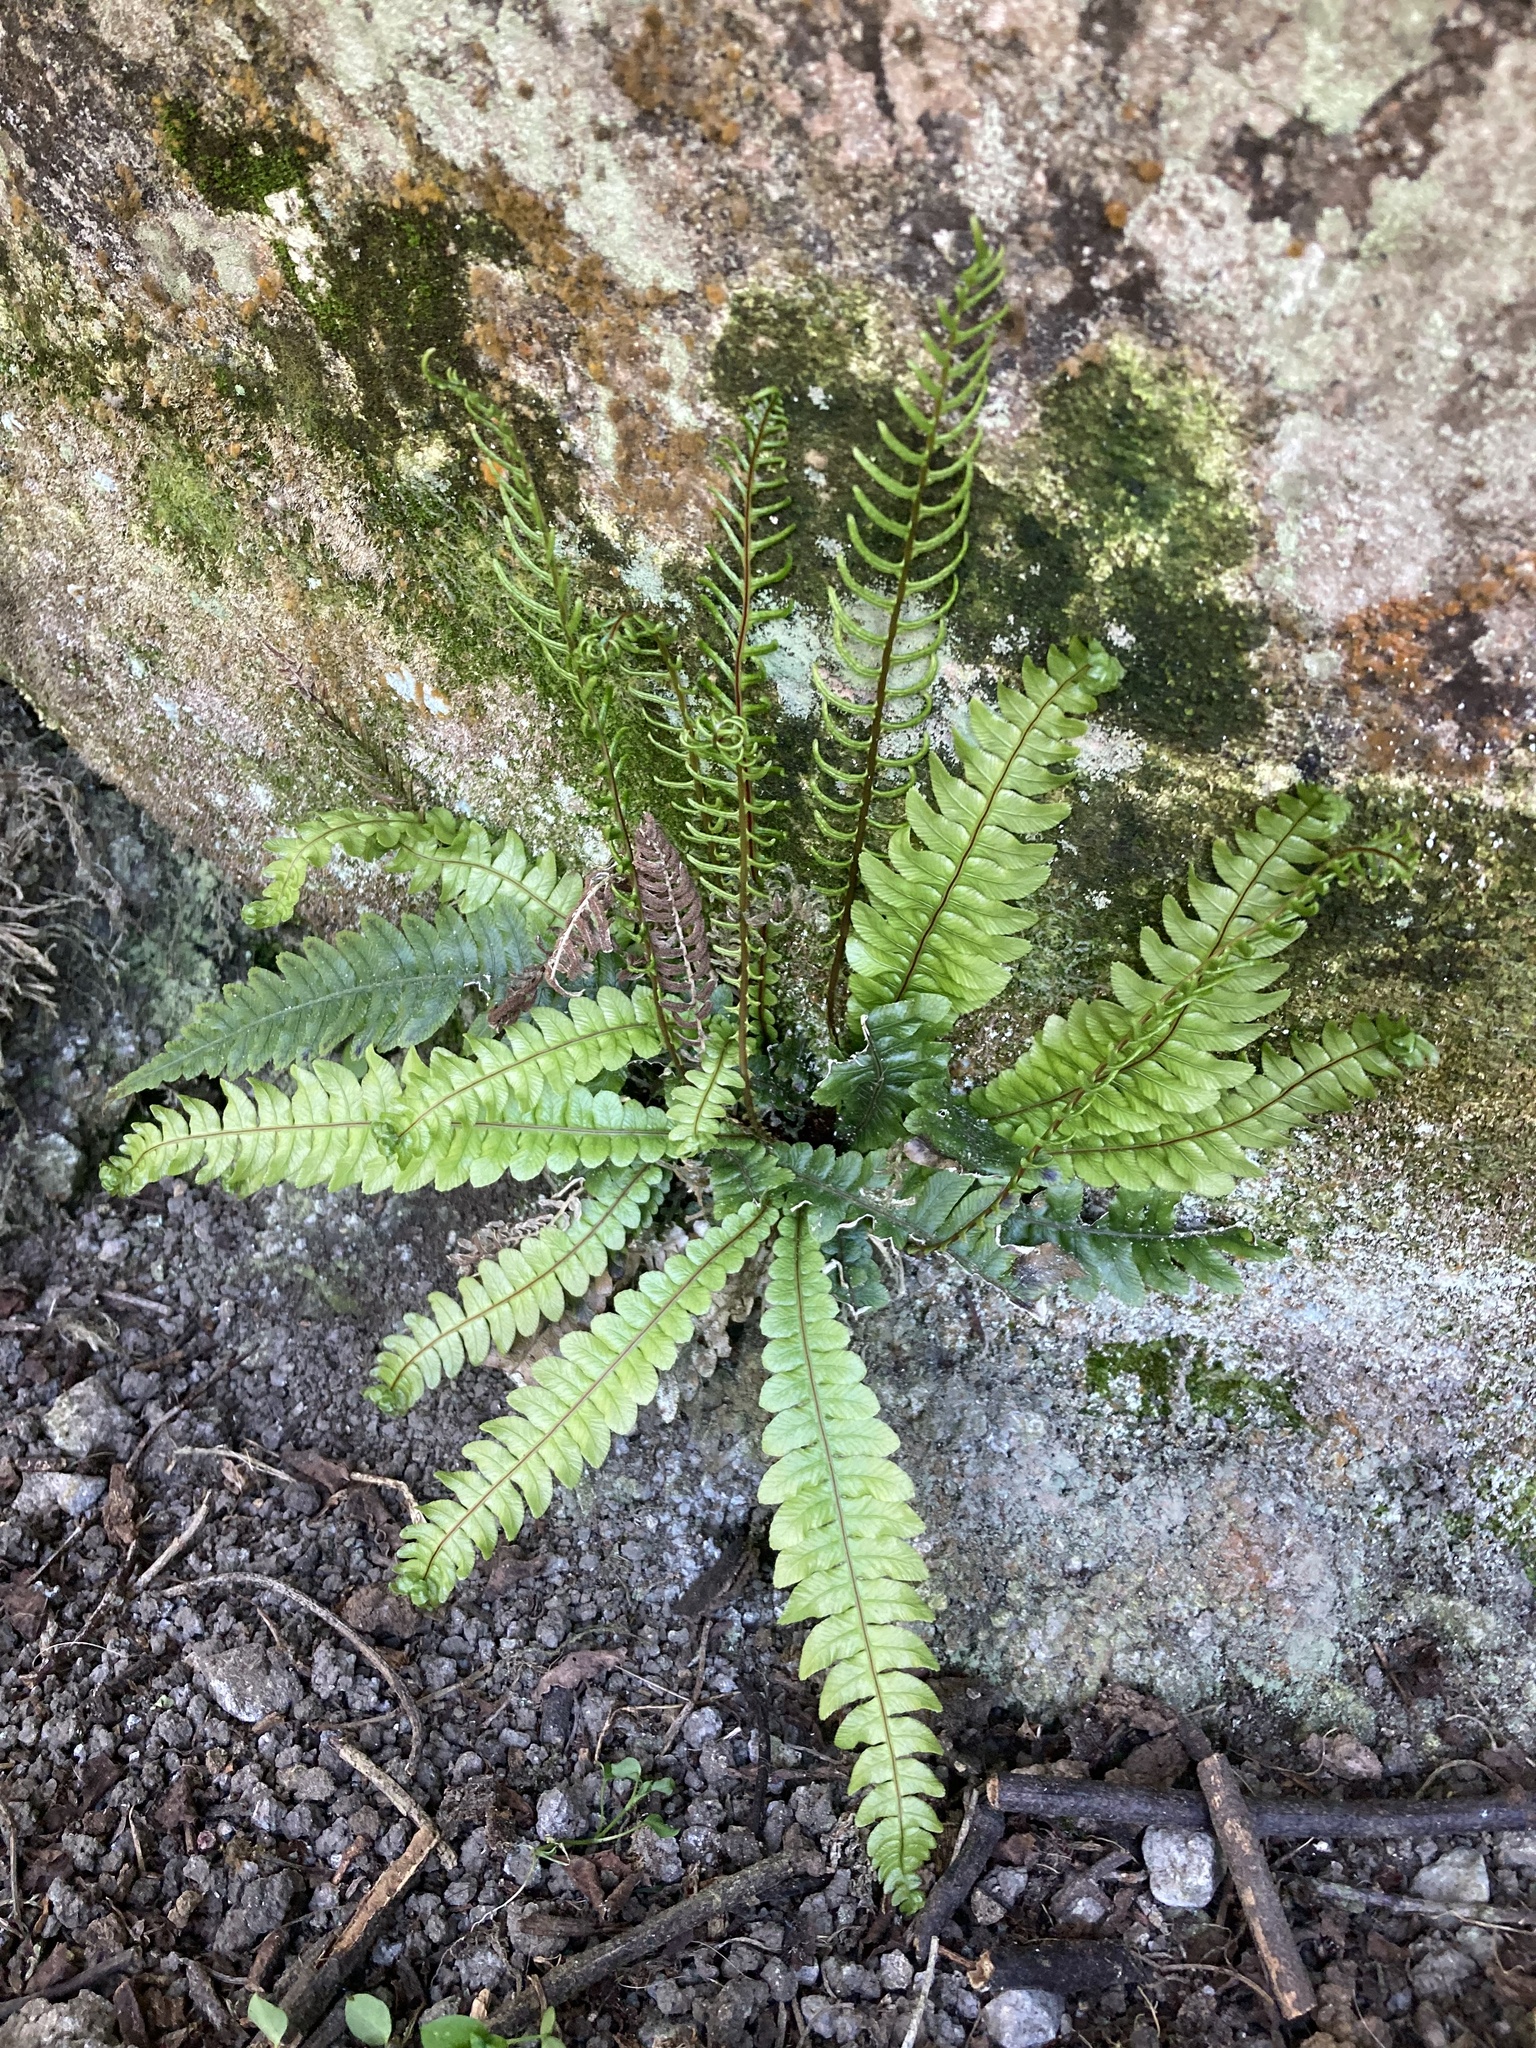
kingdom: Plantae
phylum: Tracheophyta
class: Polypodiopsida
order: Polypodiales
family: Blechnaceae
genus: Austroblechnum
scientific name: Austroblechnum lanceolatum
